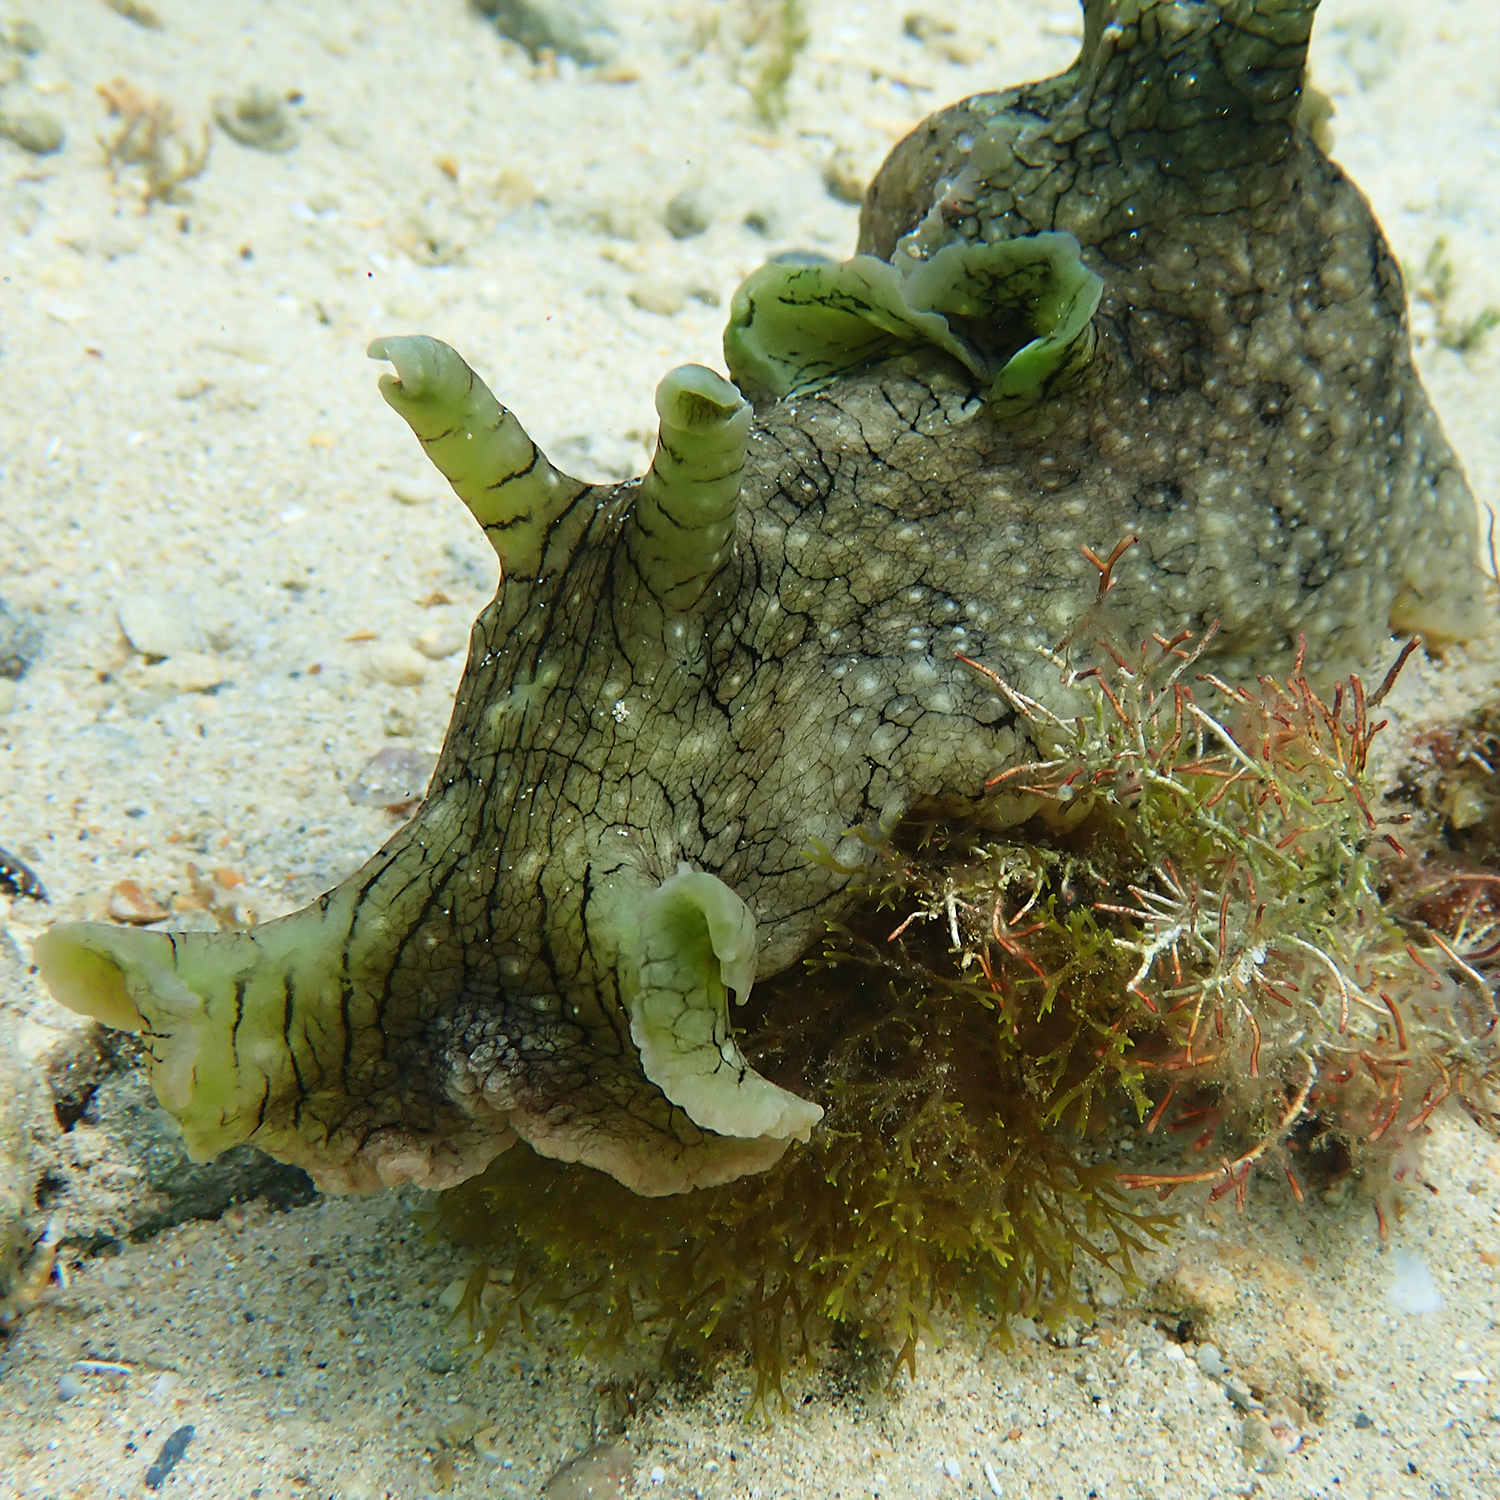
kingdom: Animalia
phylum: Mollusca
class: Gastropoda
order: Aplysiida
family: Aplysiidae
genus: Aplysia
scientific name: Aplysia argus
